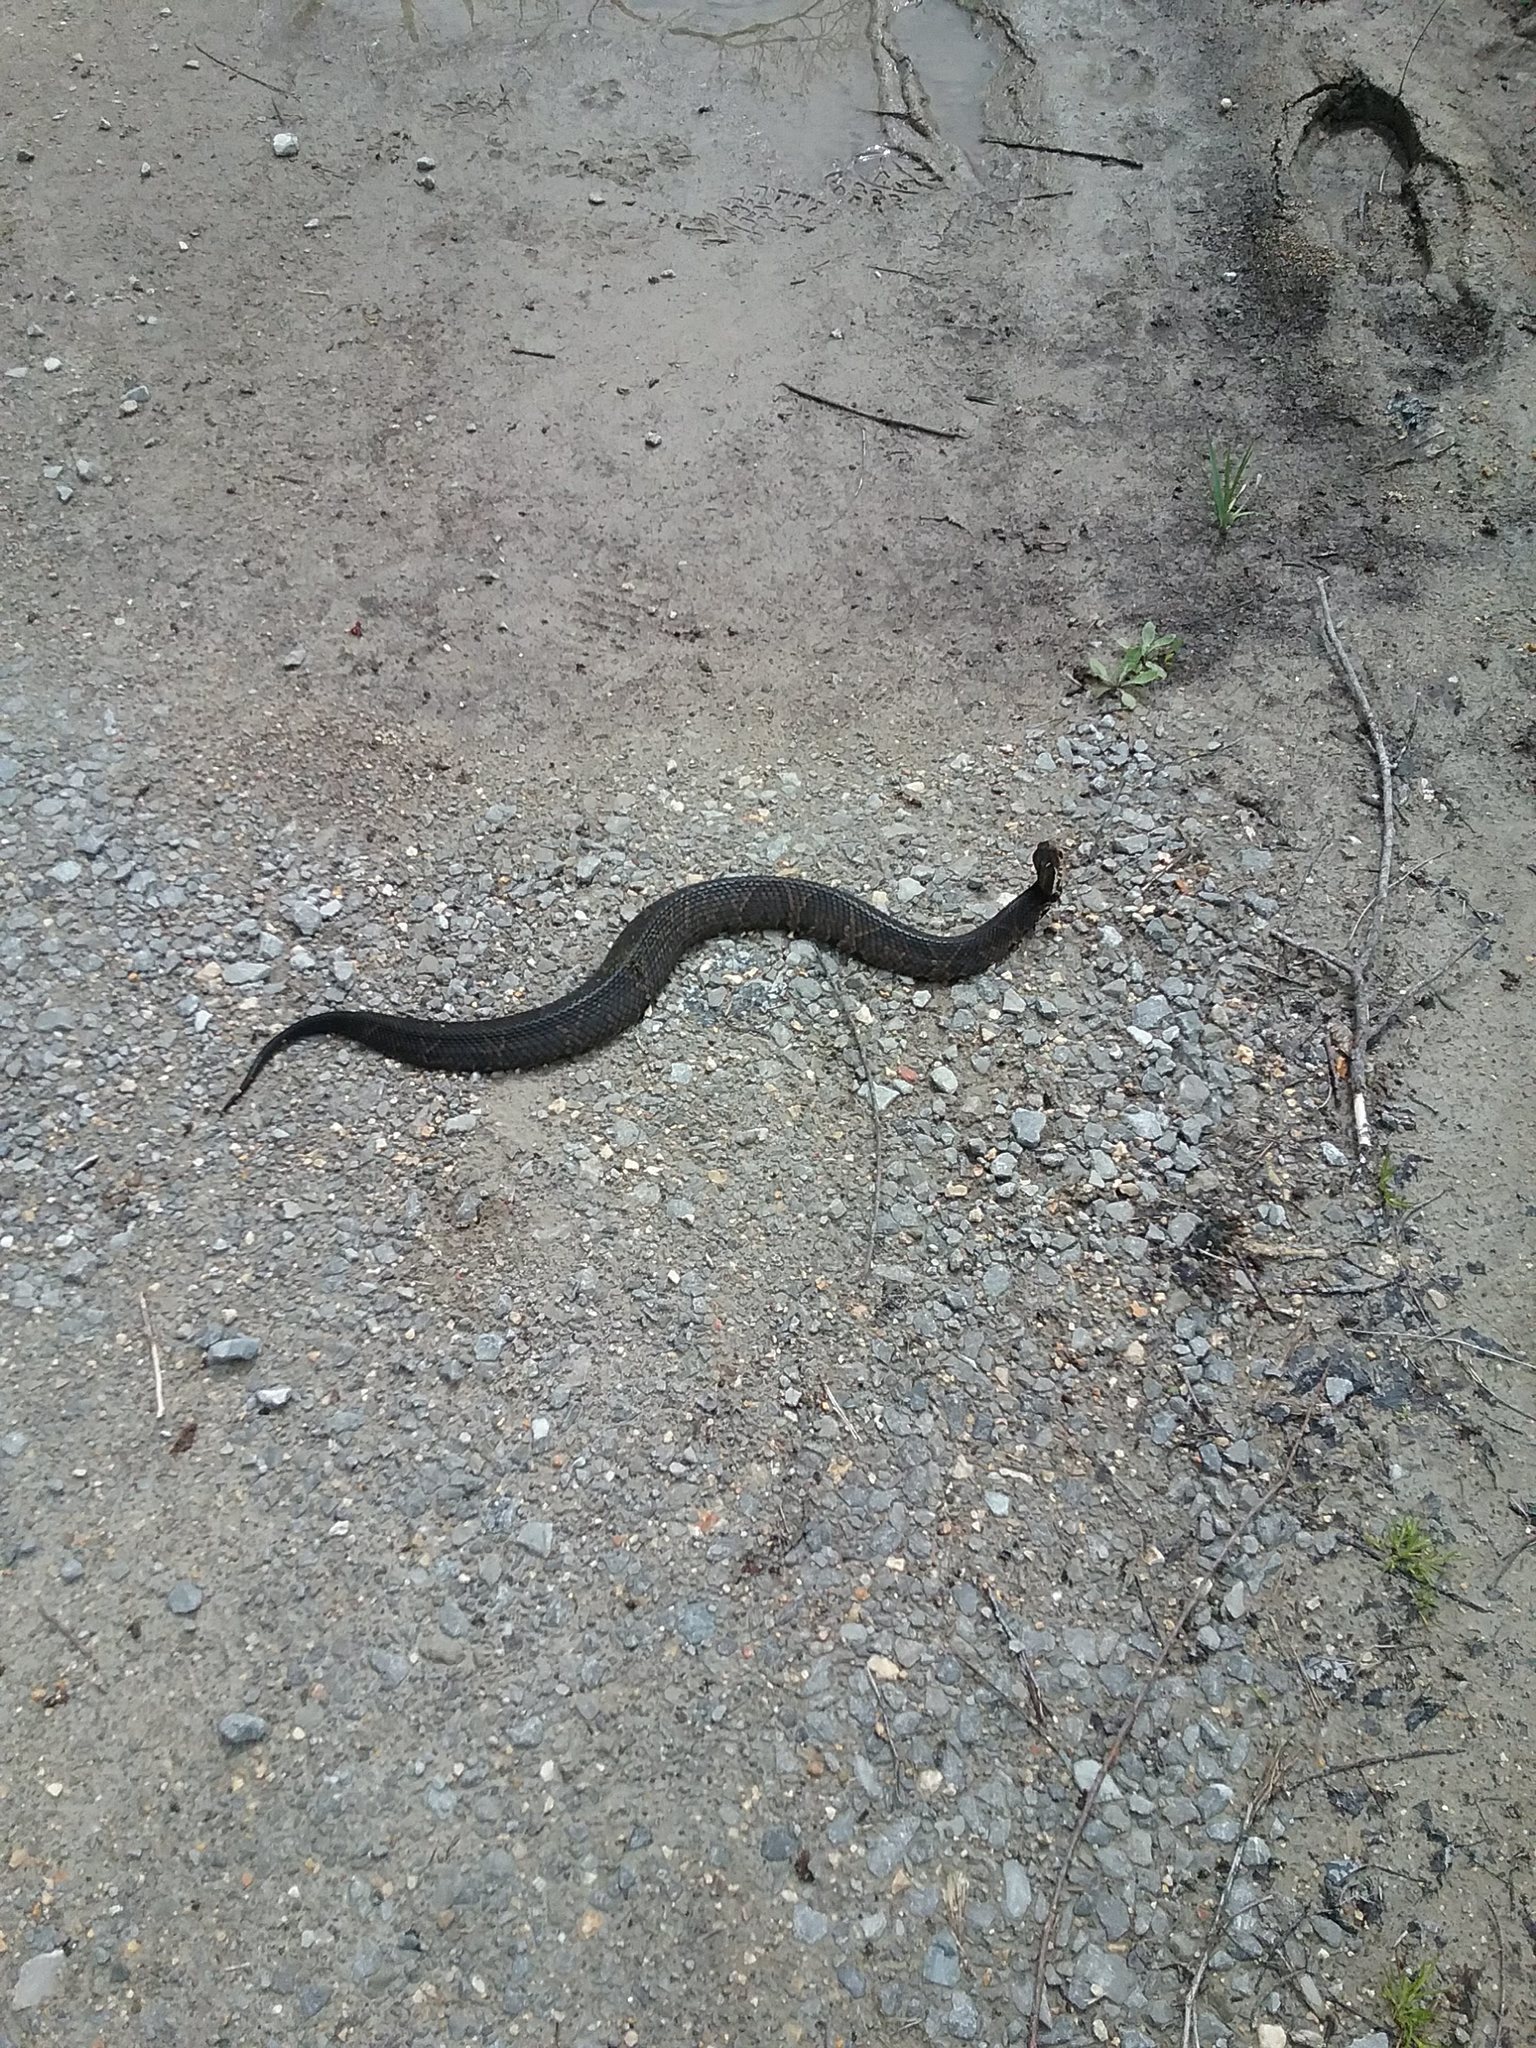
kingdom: Animalia
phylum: Chordata
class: Squamata
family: Viperidae
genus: Agkistrodon
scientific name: Agkistrodon piscivorus
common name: Cottonmouth
